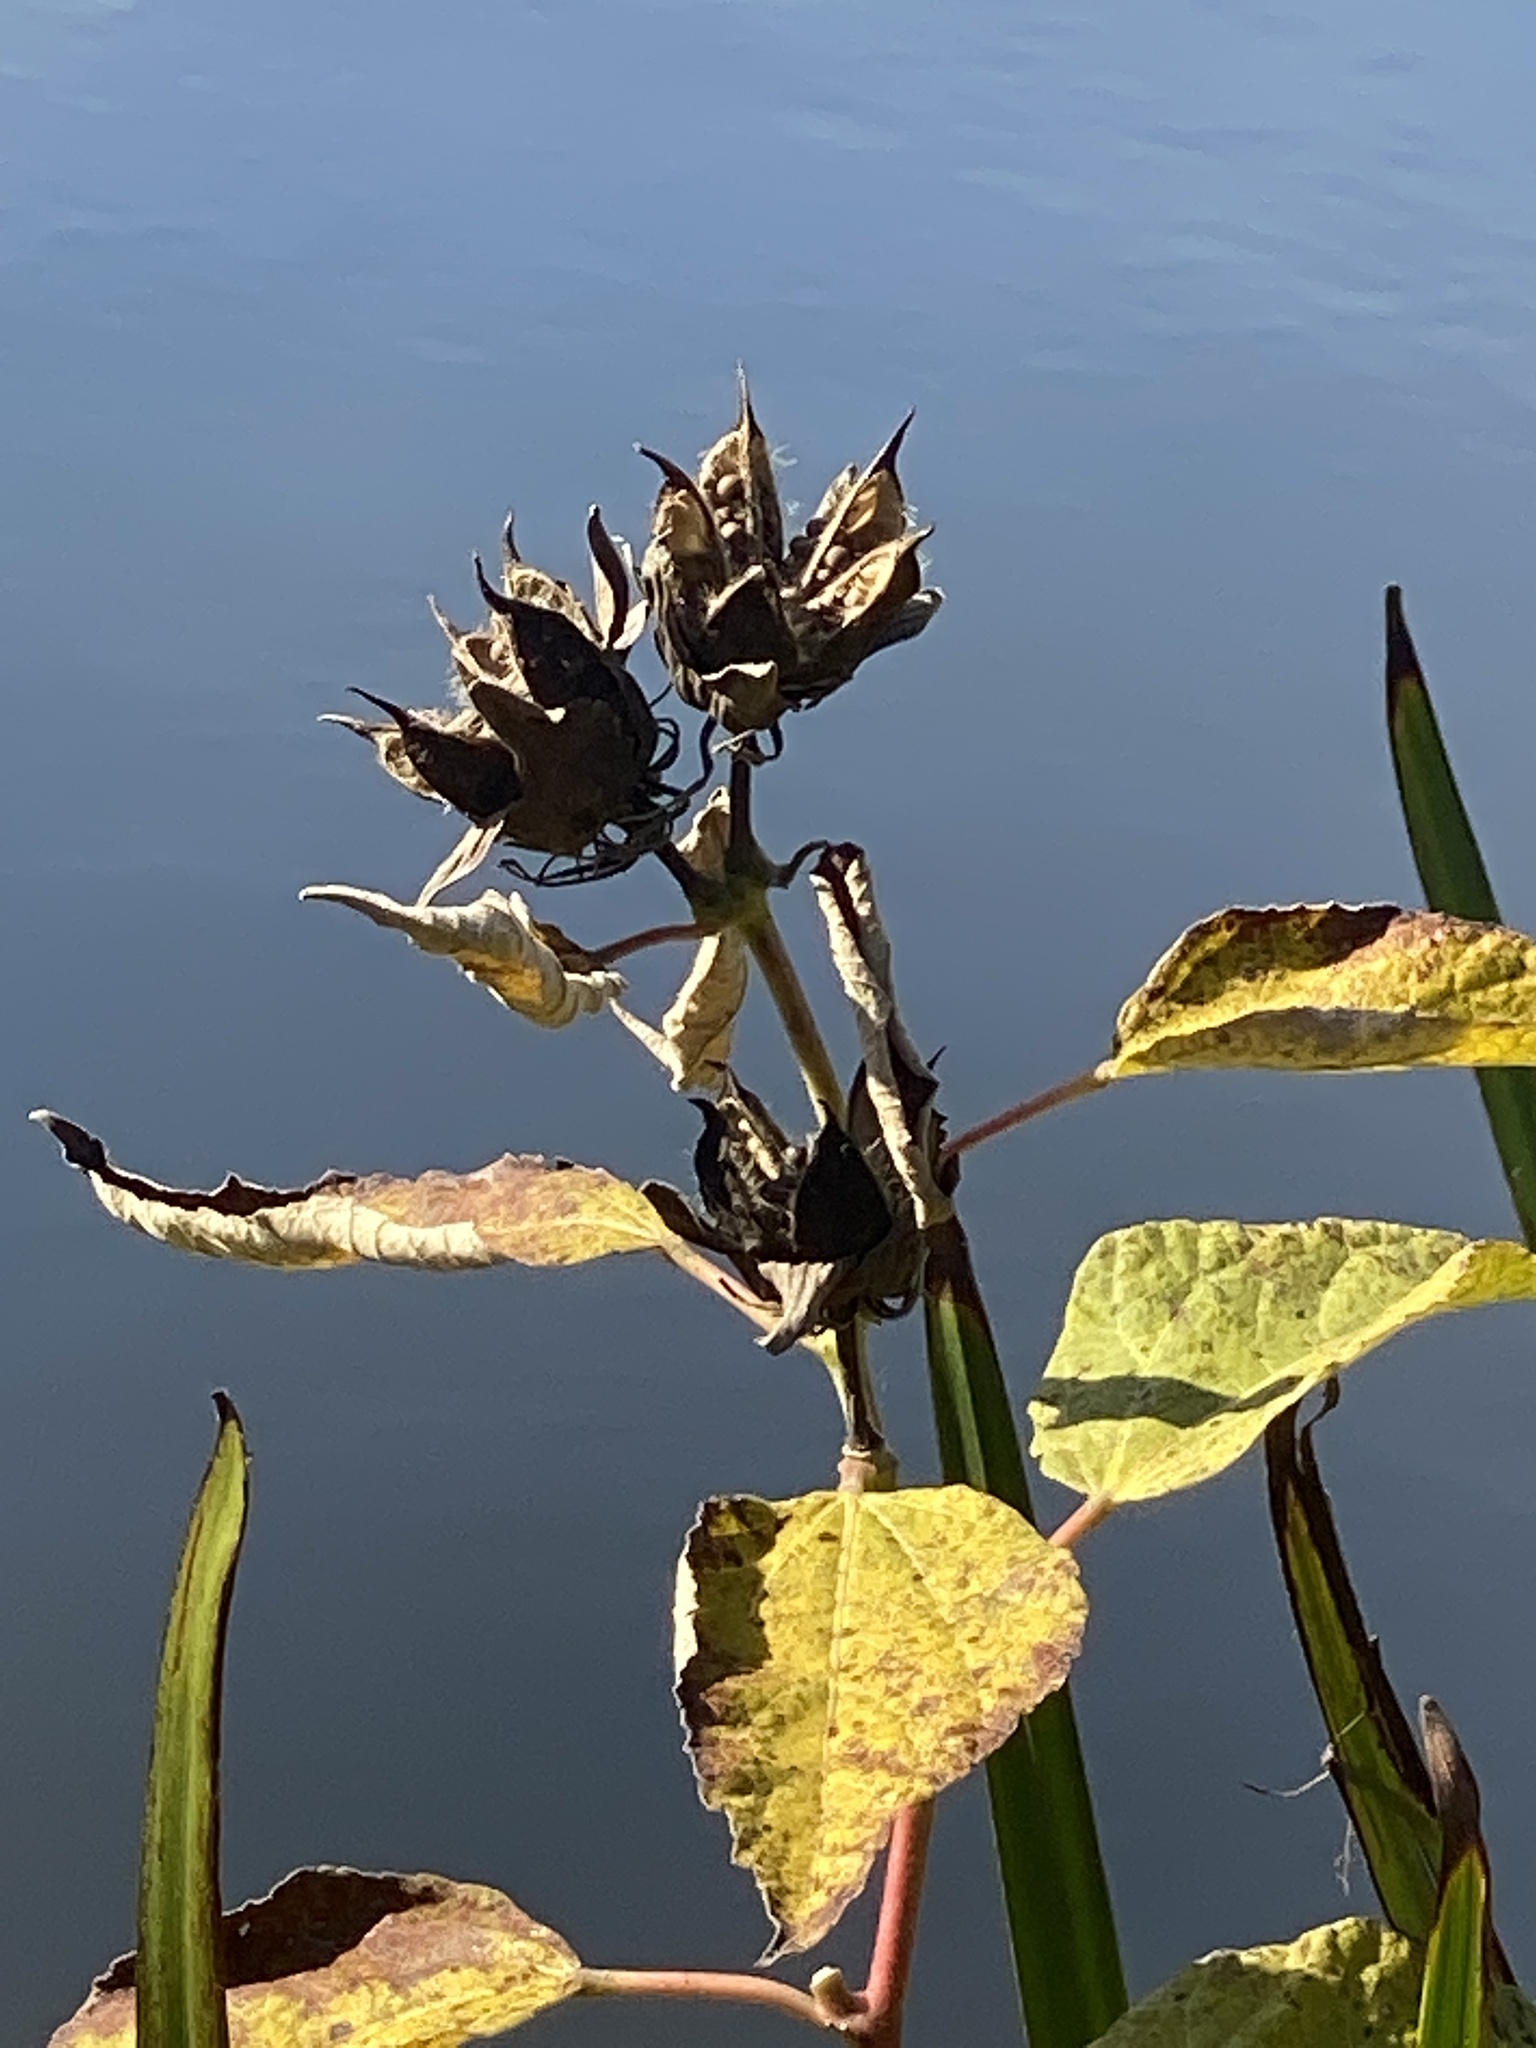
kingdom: Plantae
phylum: Tracheophyta
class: Magnoliopsida
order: Malvales
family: Malvaceae
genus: Hibiscus
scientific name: Hibiscus moscheutos
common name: Common rose-mallow
